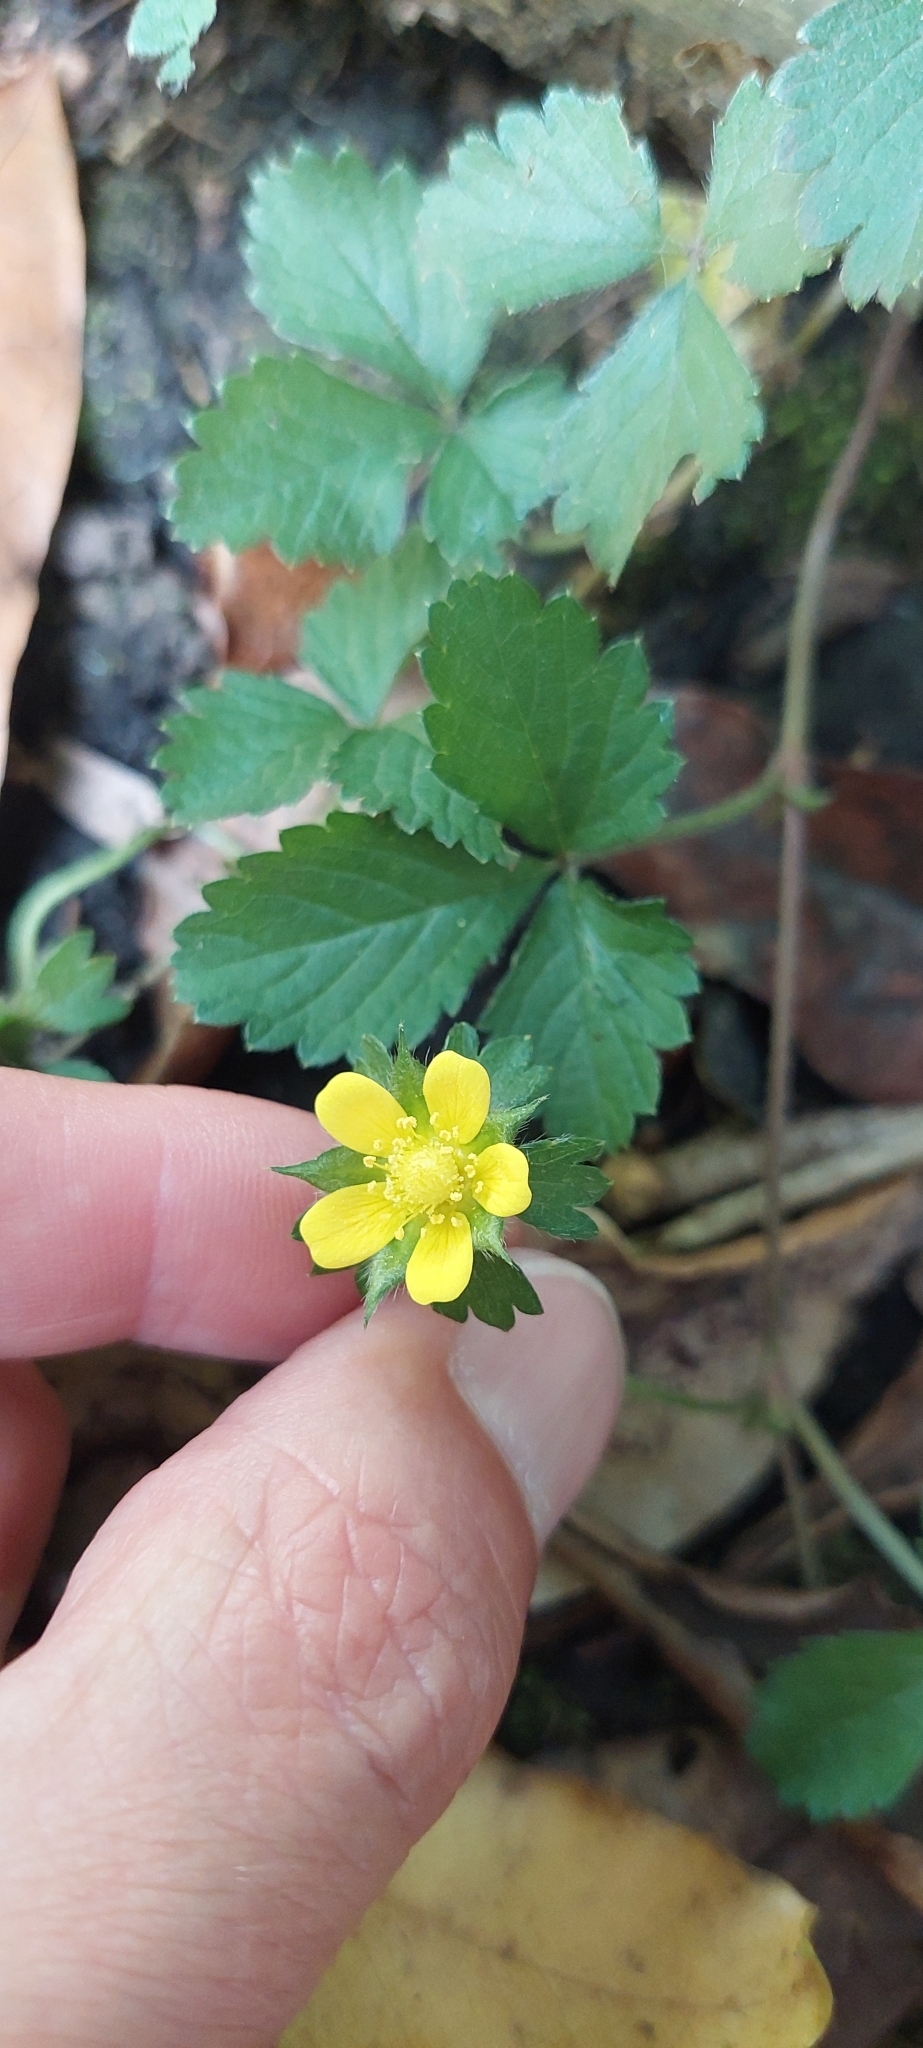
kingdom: Plantae
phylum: Tracheophyta
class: Magnoliopsida
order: Rosales
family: Rosaceae
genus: Potentilla
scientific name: Potentilla indica
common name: Yellow-flowered strawberry
